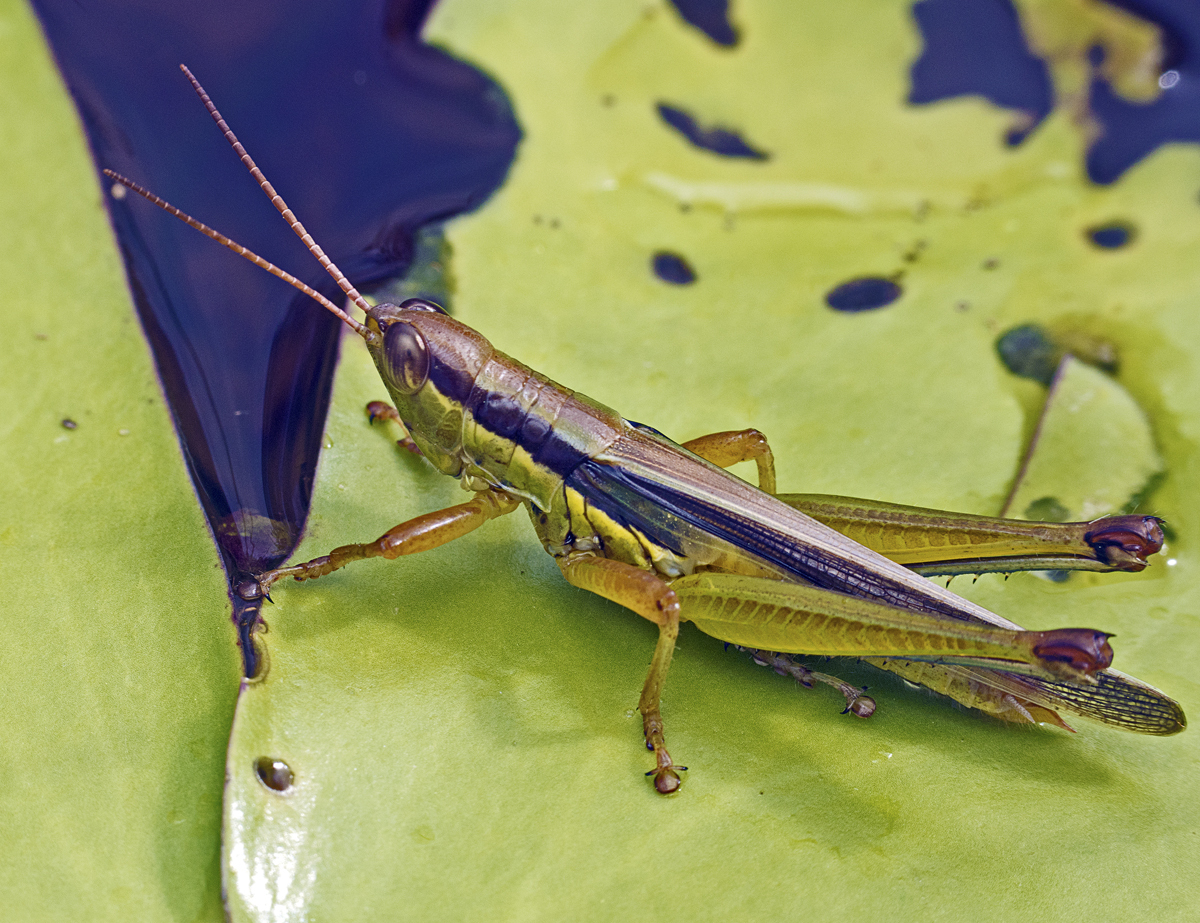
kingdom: Animalia
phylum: Arthropoda
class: Insecta
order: Orthoptera
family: Acrididae
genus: Bermius
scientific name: Bermius odontocercus
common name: Eastern toothed bermius
